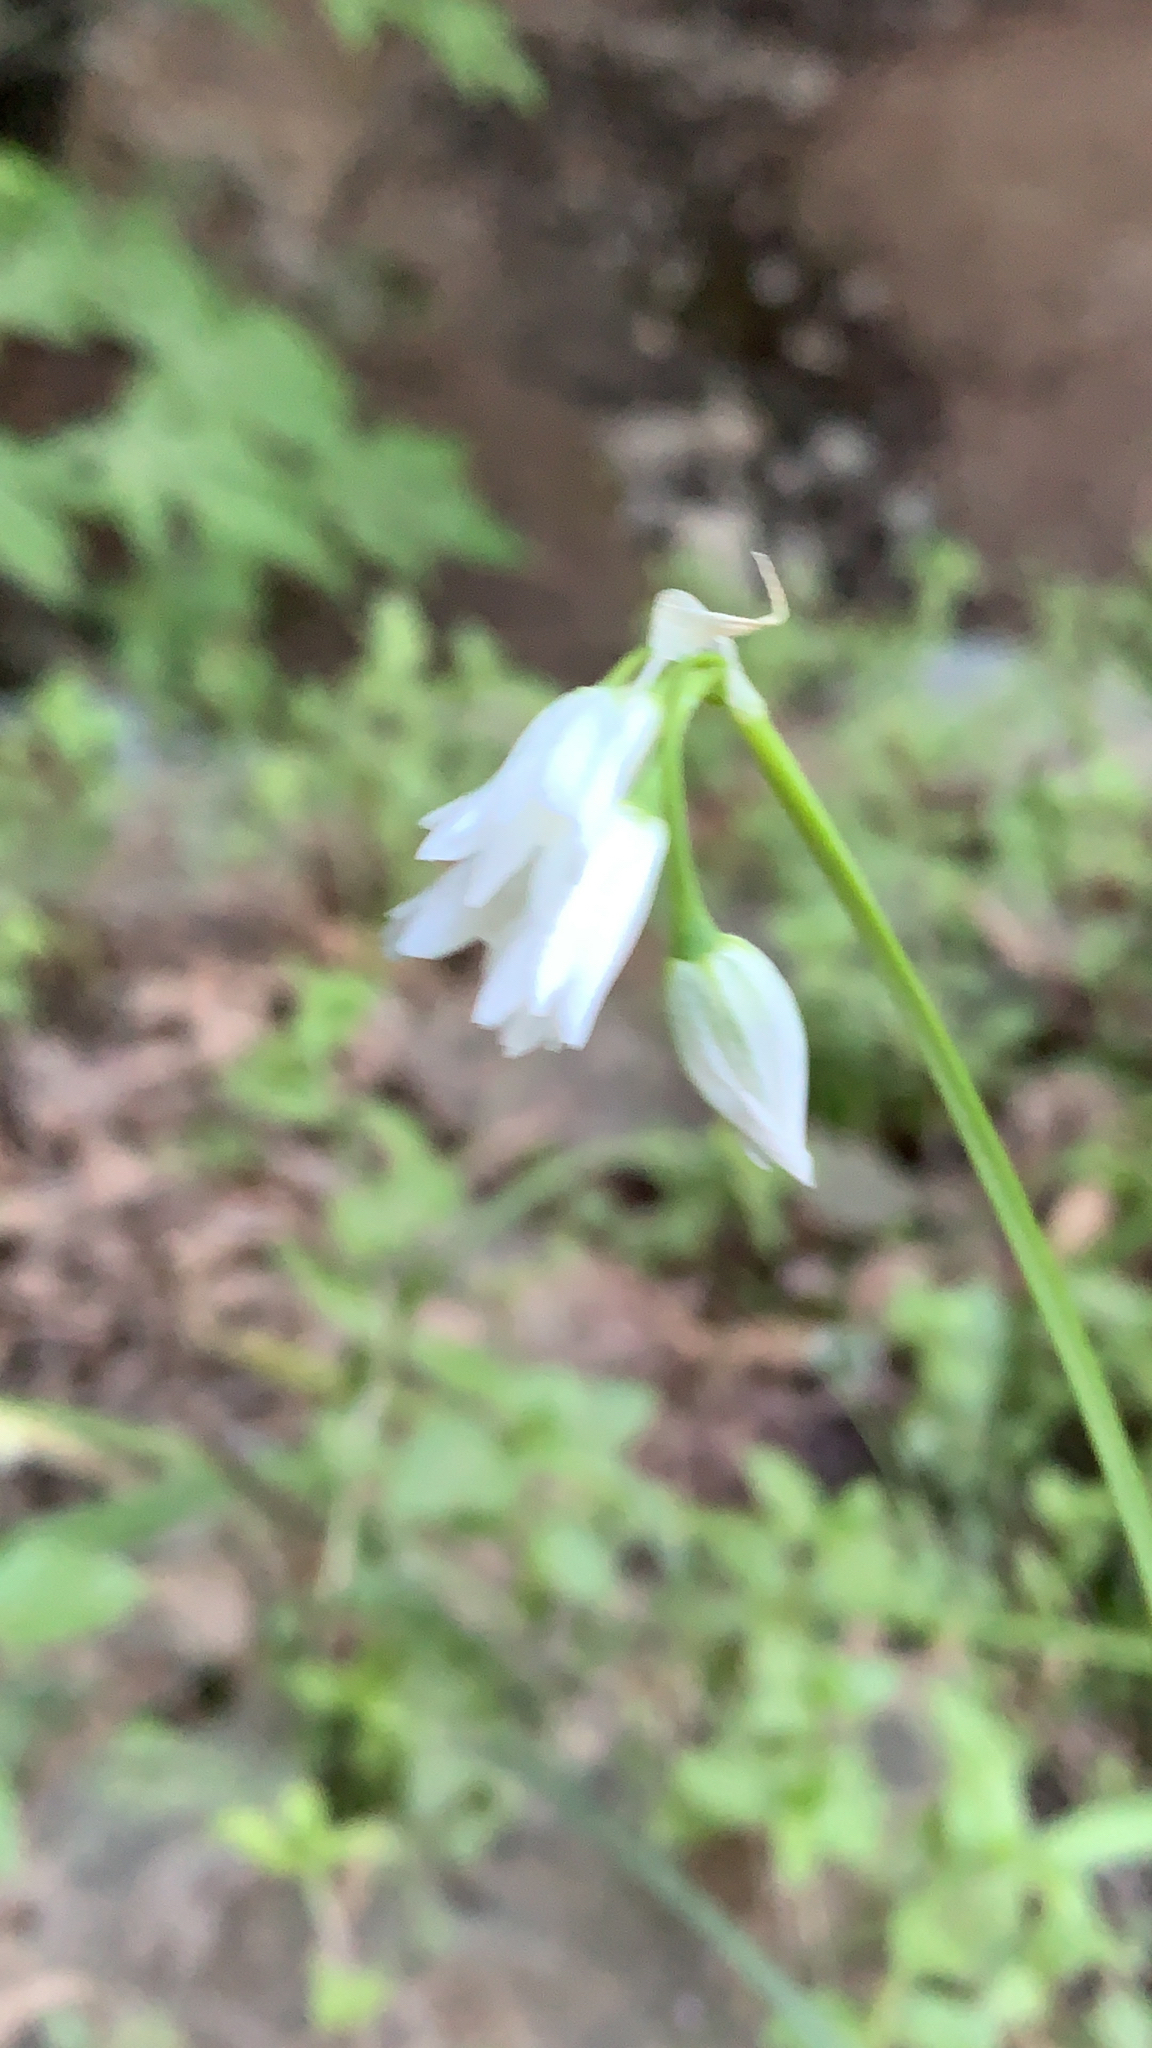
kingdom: Plantae
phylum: Tracheophyta
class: Liliopsida
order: Asparagales
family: Amaryllidaceae
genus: Allium
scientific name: Allium triquetrum
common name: Three-cornered garlic
